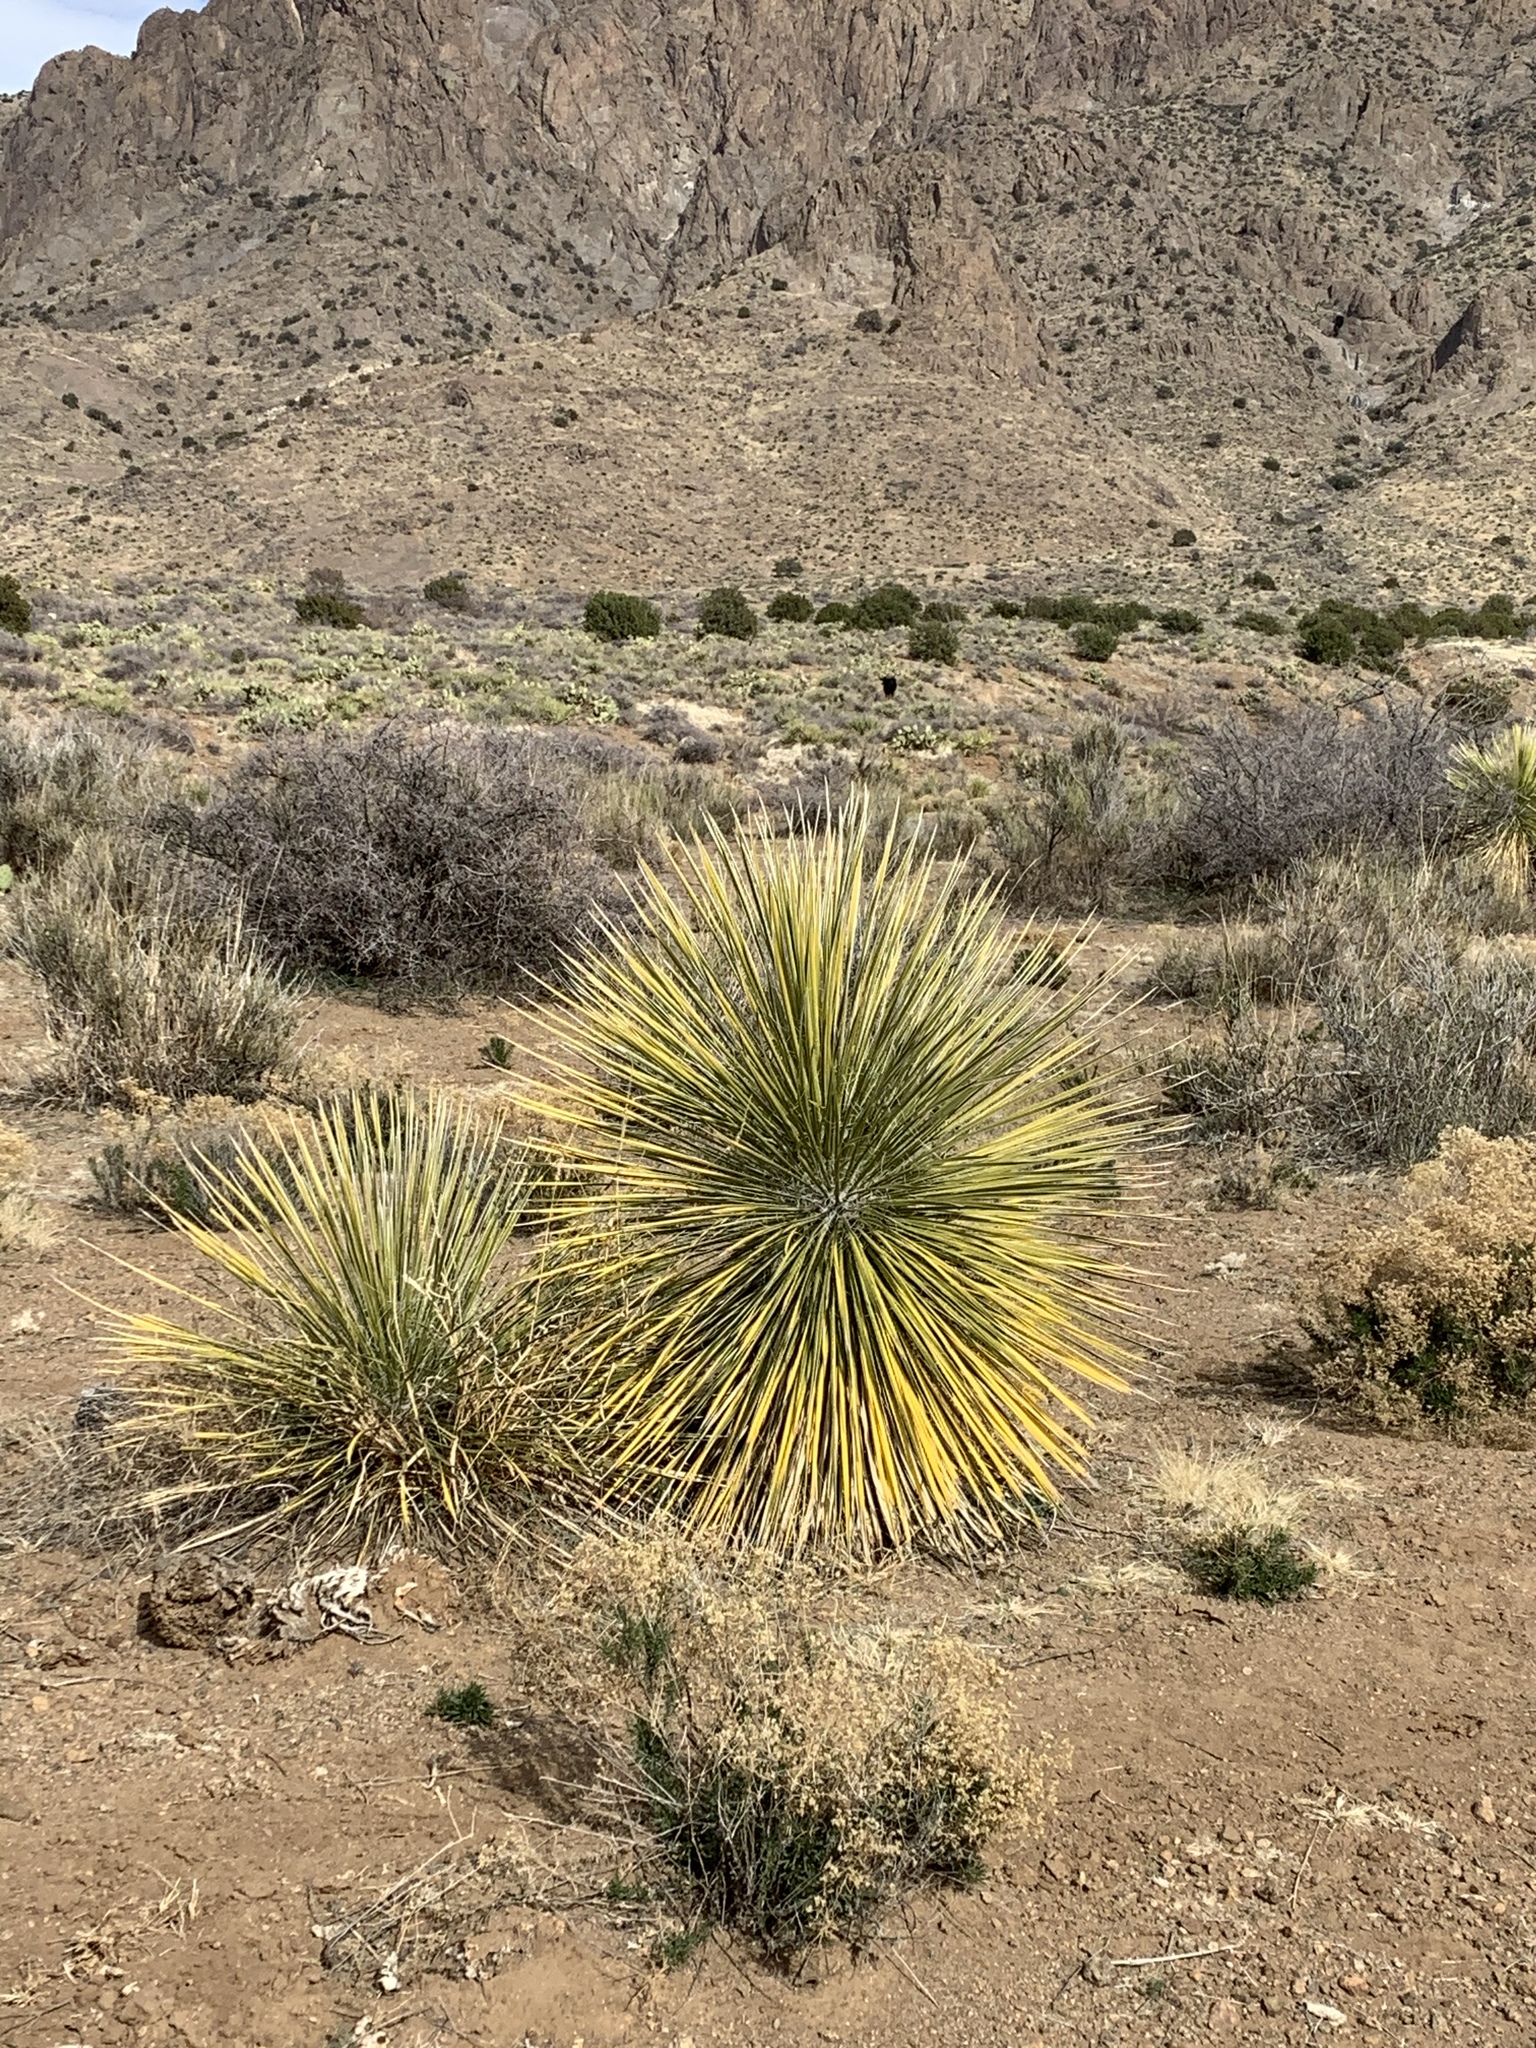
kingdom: Plantae
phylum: Tracheophyta
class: Liliopsida
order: Asparagales
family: Asparagaceae
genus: Yucca
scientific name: Yucca elata
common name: Palmella
